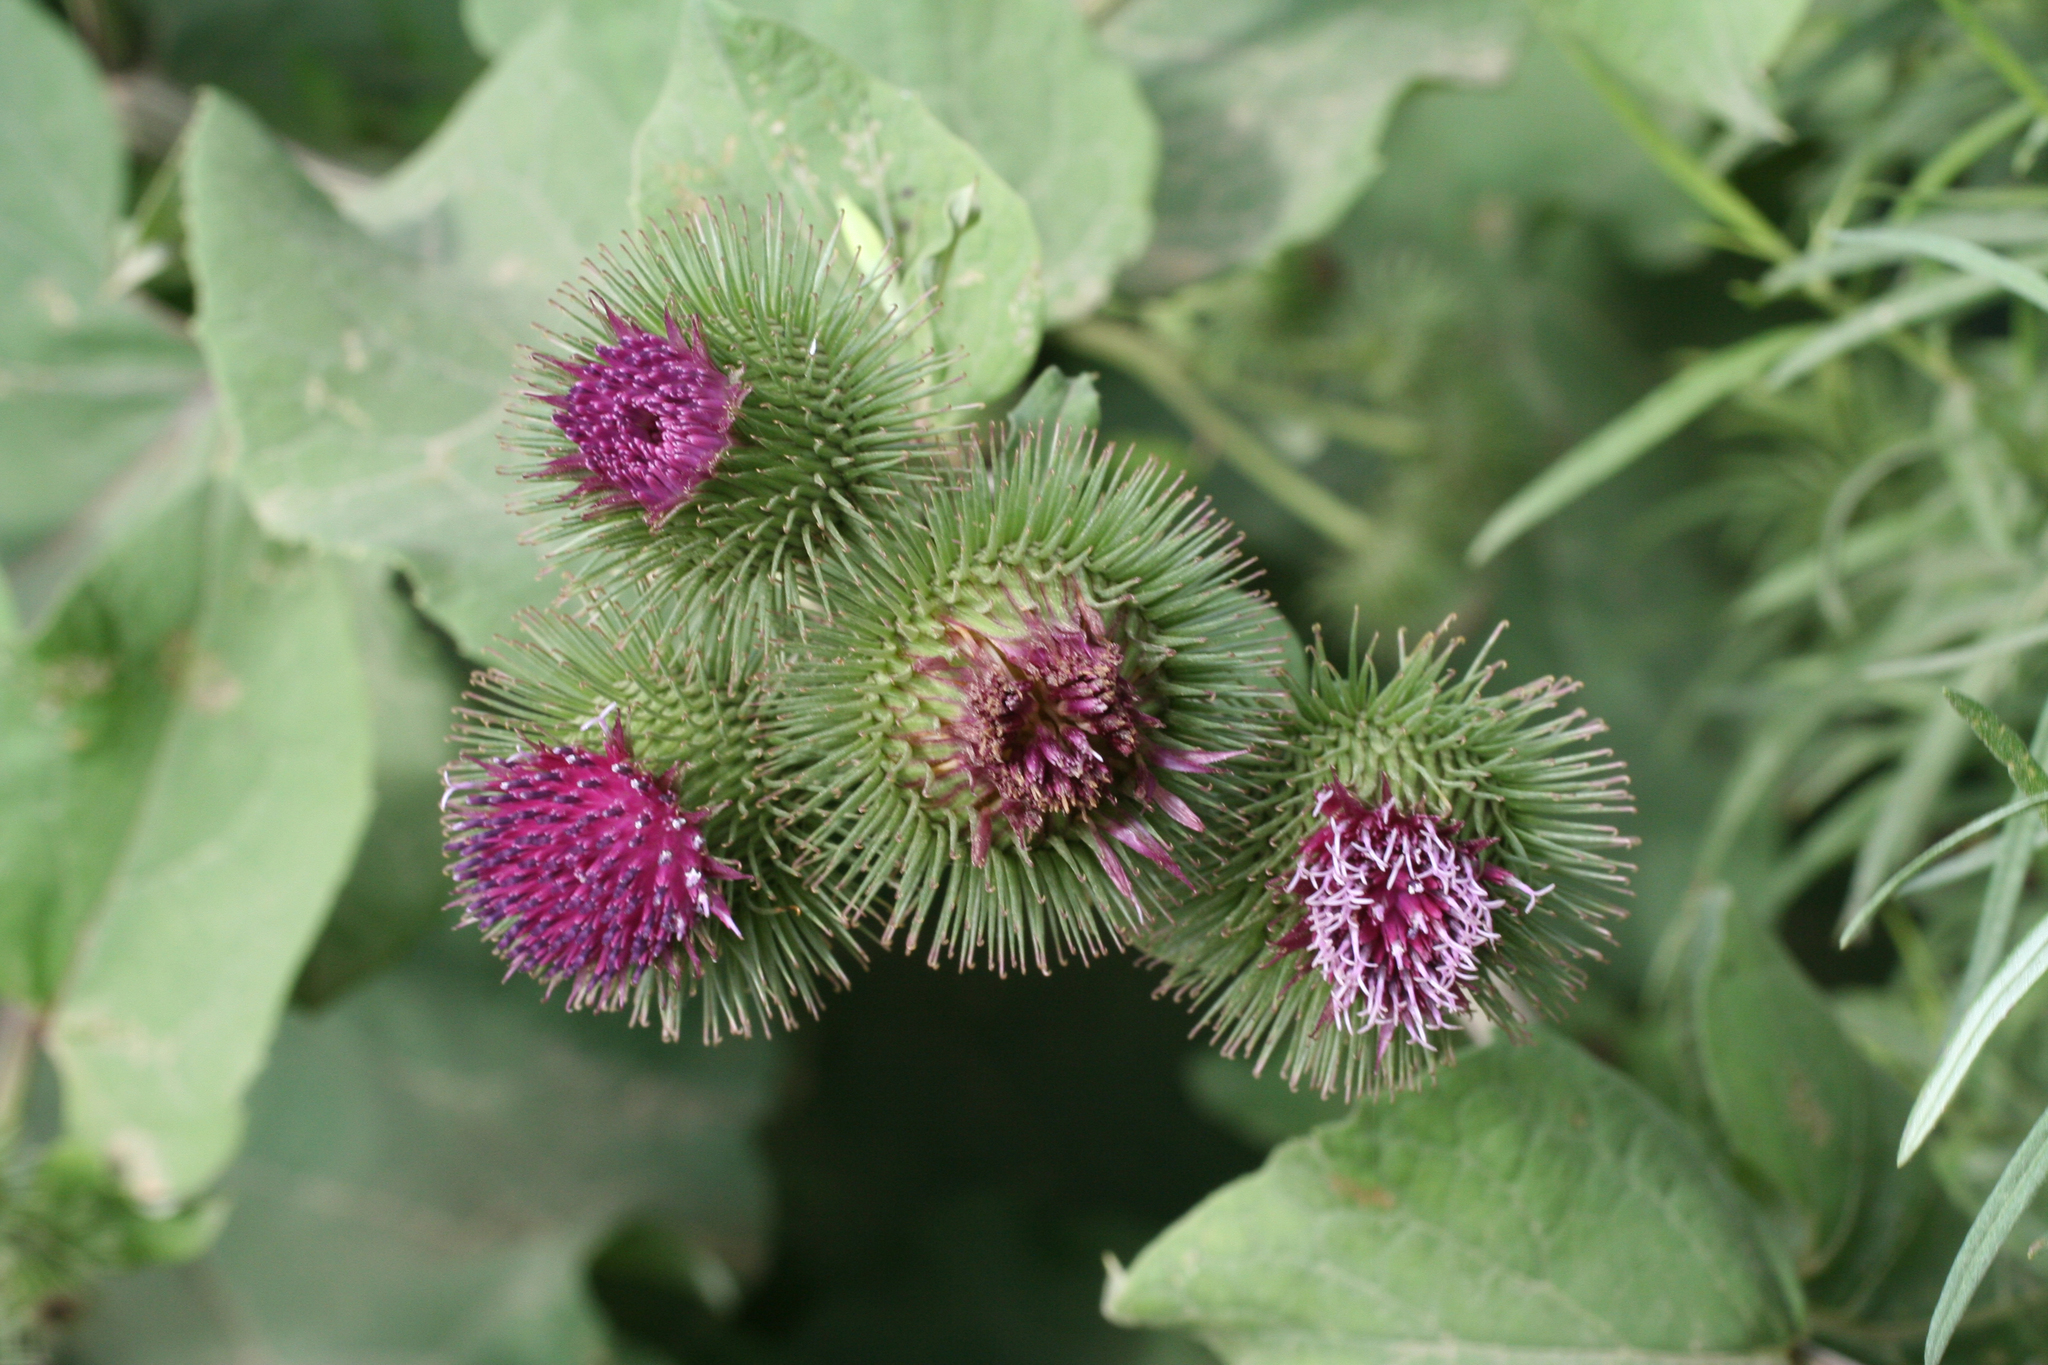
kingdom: Plantae
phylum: Tracheophyta
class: Magnoliopsida
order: Asterales
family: Asteraceae
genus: Arctium
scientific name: Arctium lappa
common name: Greater burdock
